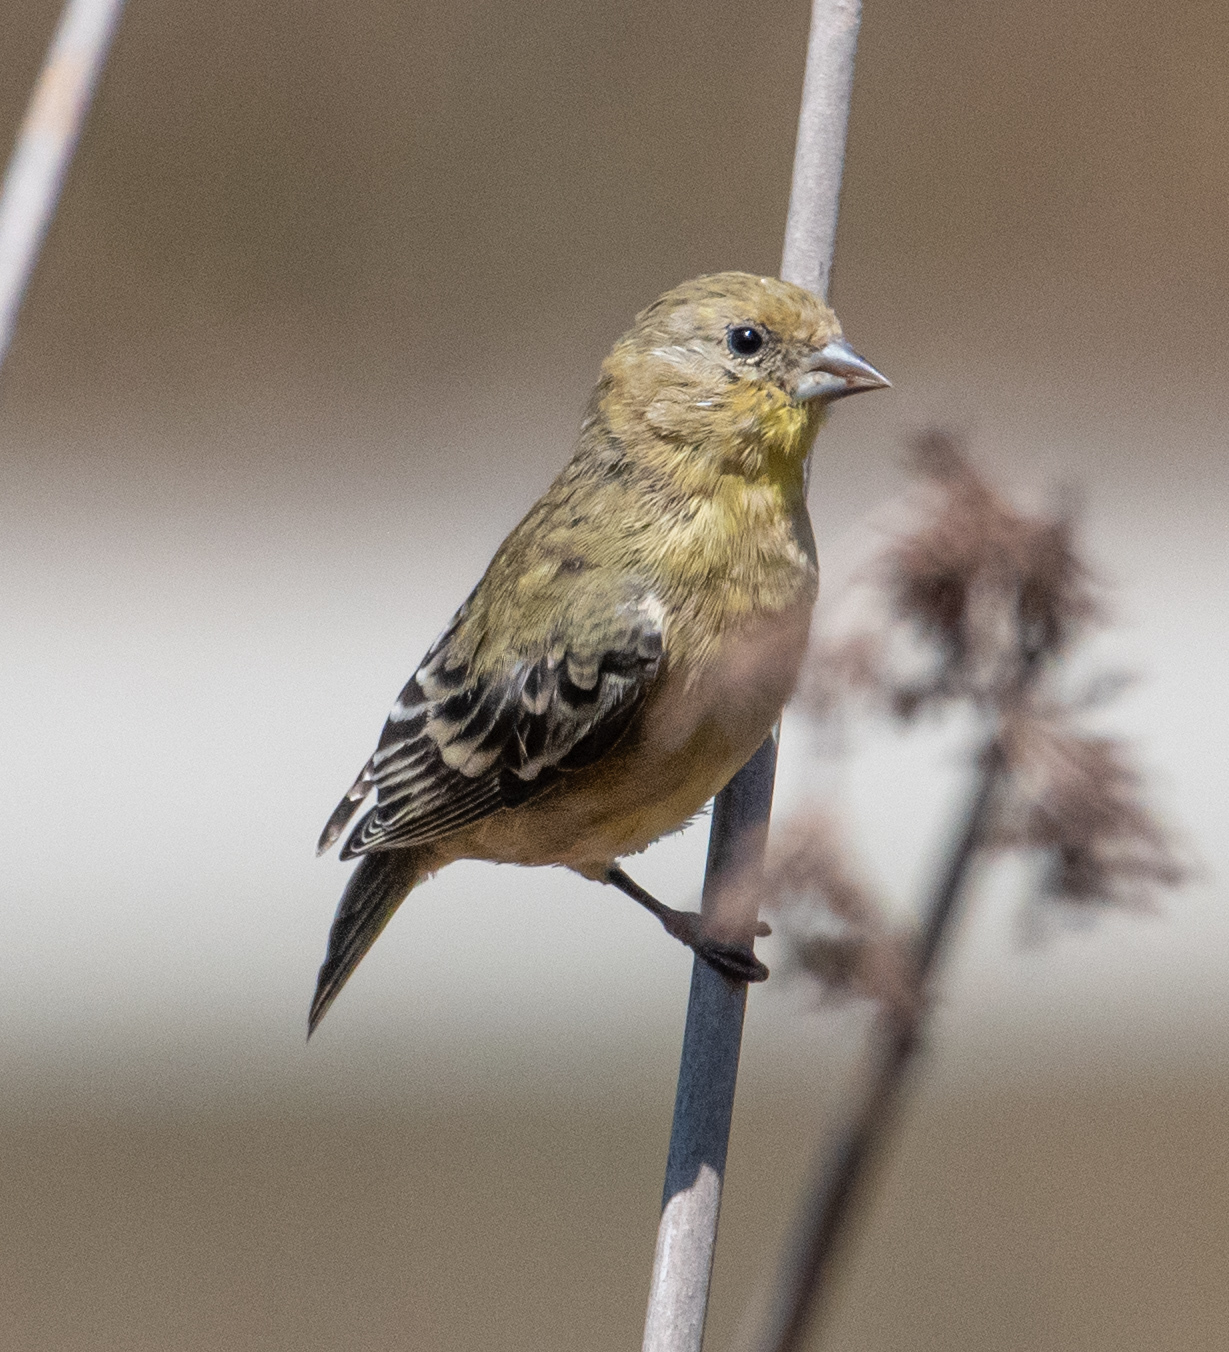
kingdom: Animalia
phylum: Chordata
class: Aves
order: Passeriformes
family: Fringillidae
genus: Spinus
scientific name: Spinus psaltria
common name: Lesser goldfinch
